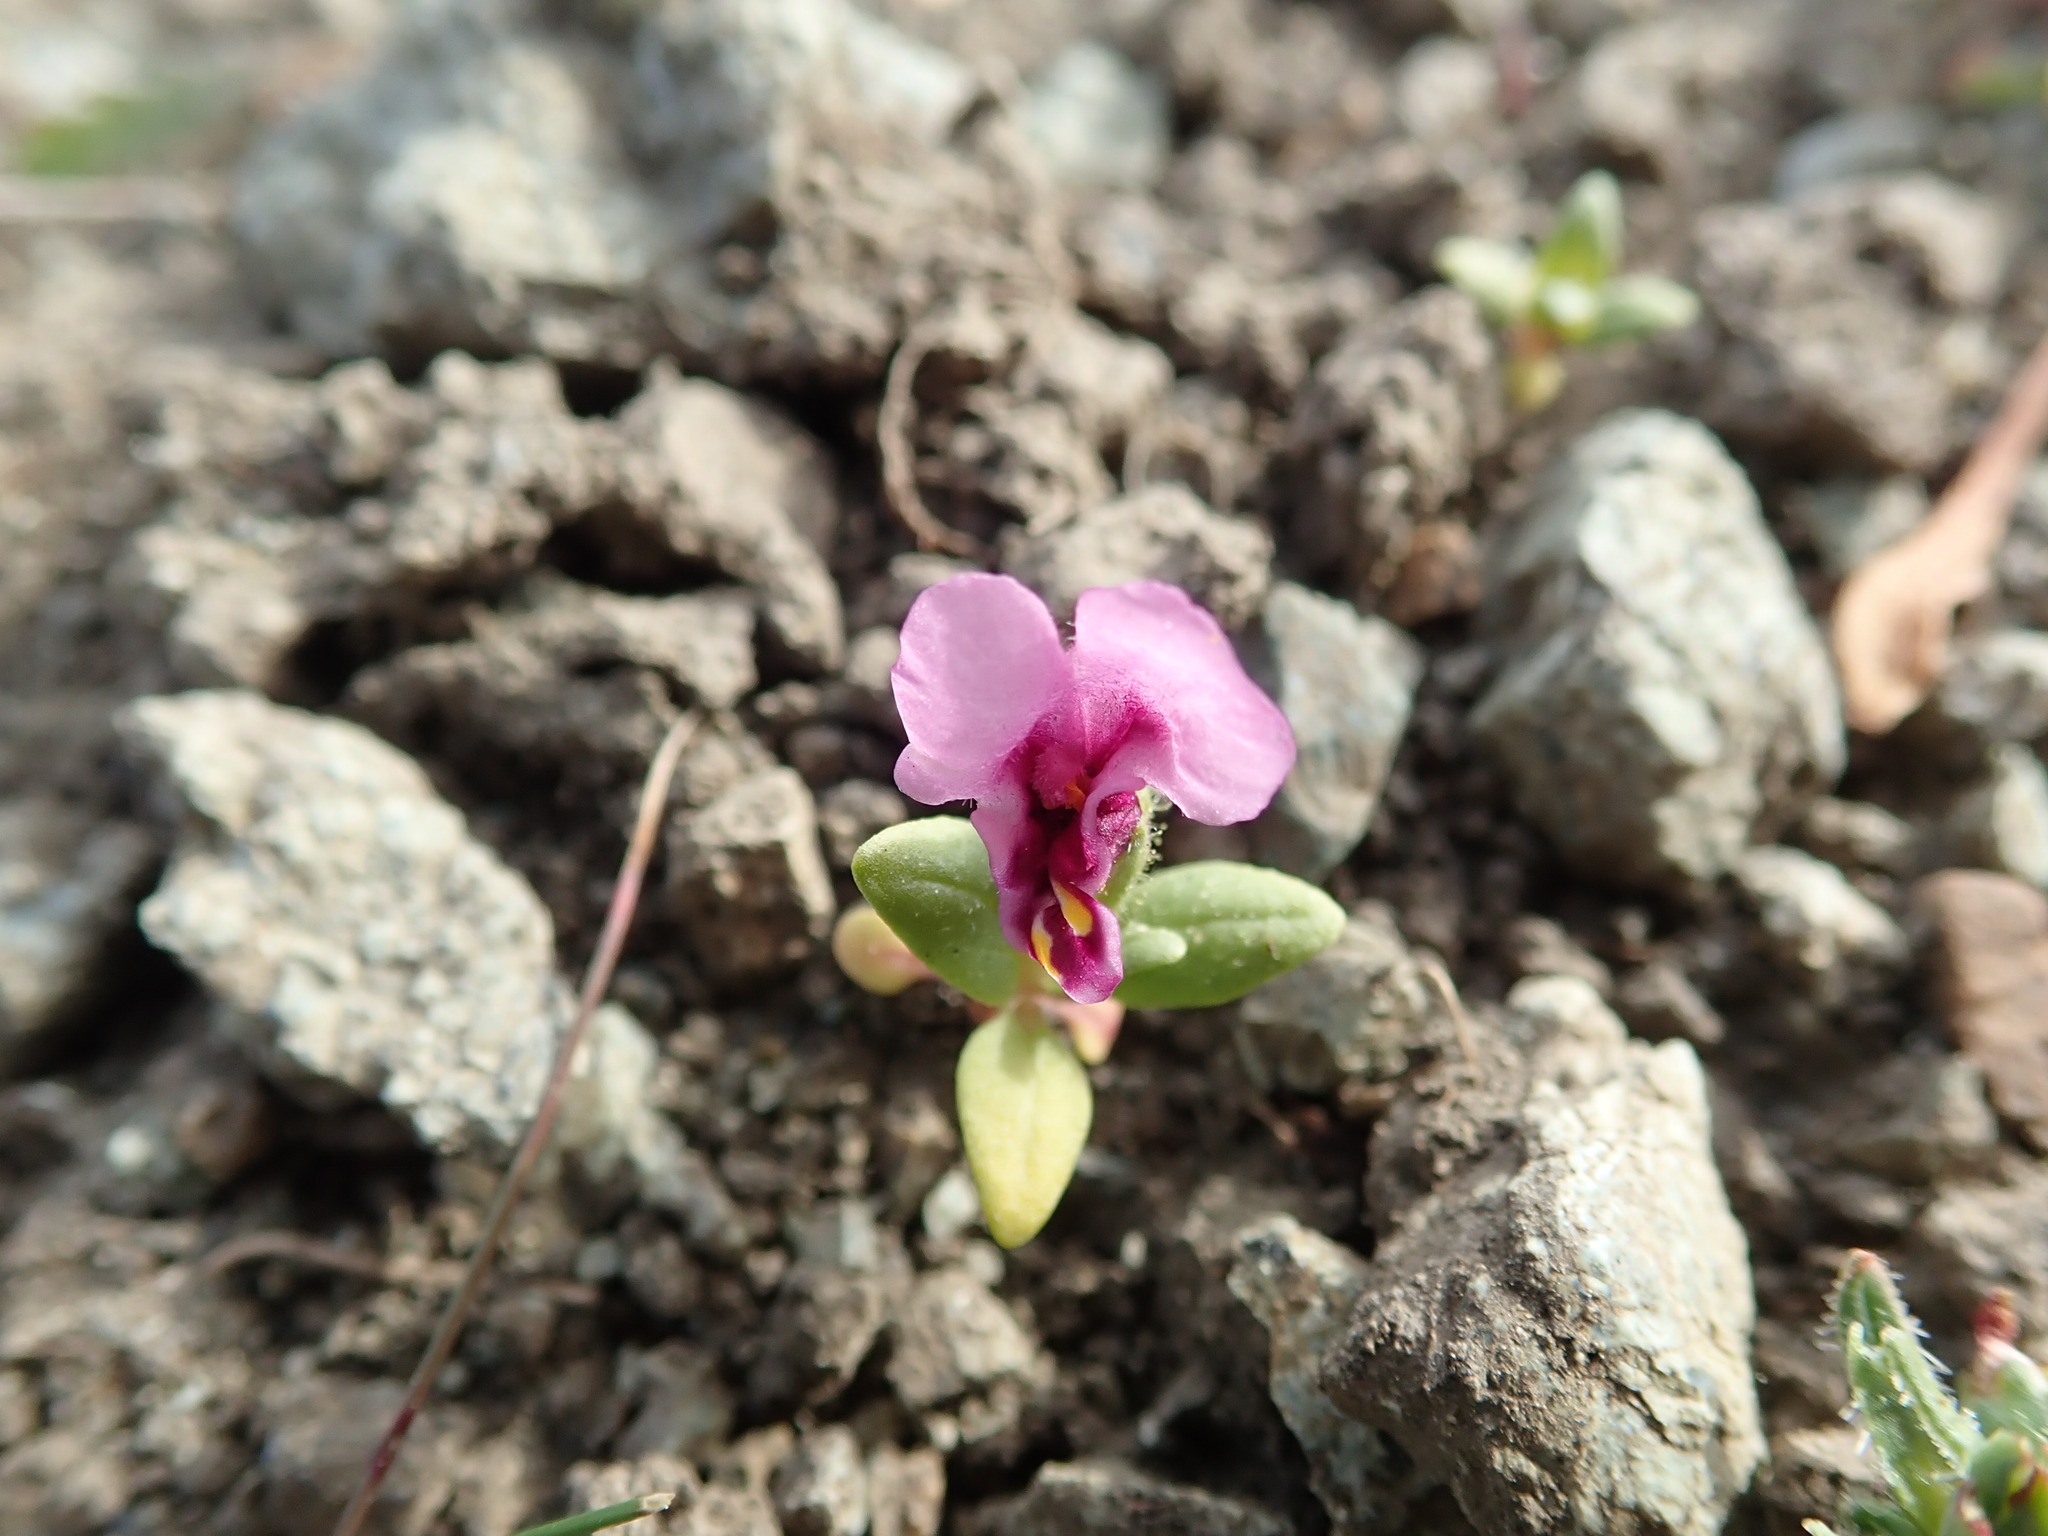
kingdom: Plantae
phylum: Tracheophyta
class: Magnoliopsida
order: Lamiales
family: Phrymaceae
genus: Diplacus
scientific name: Diplacus douglasii
